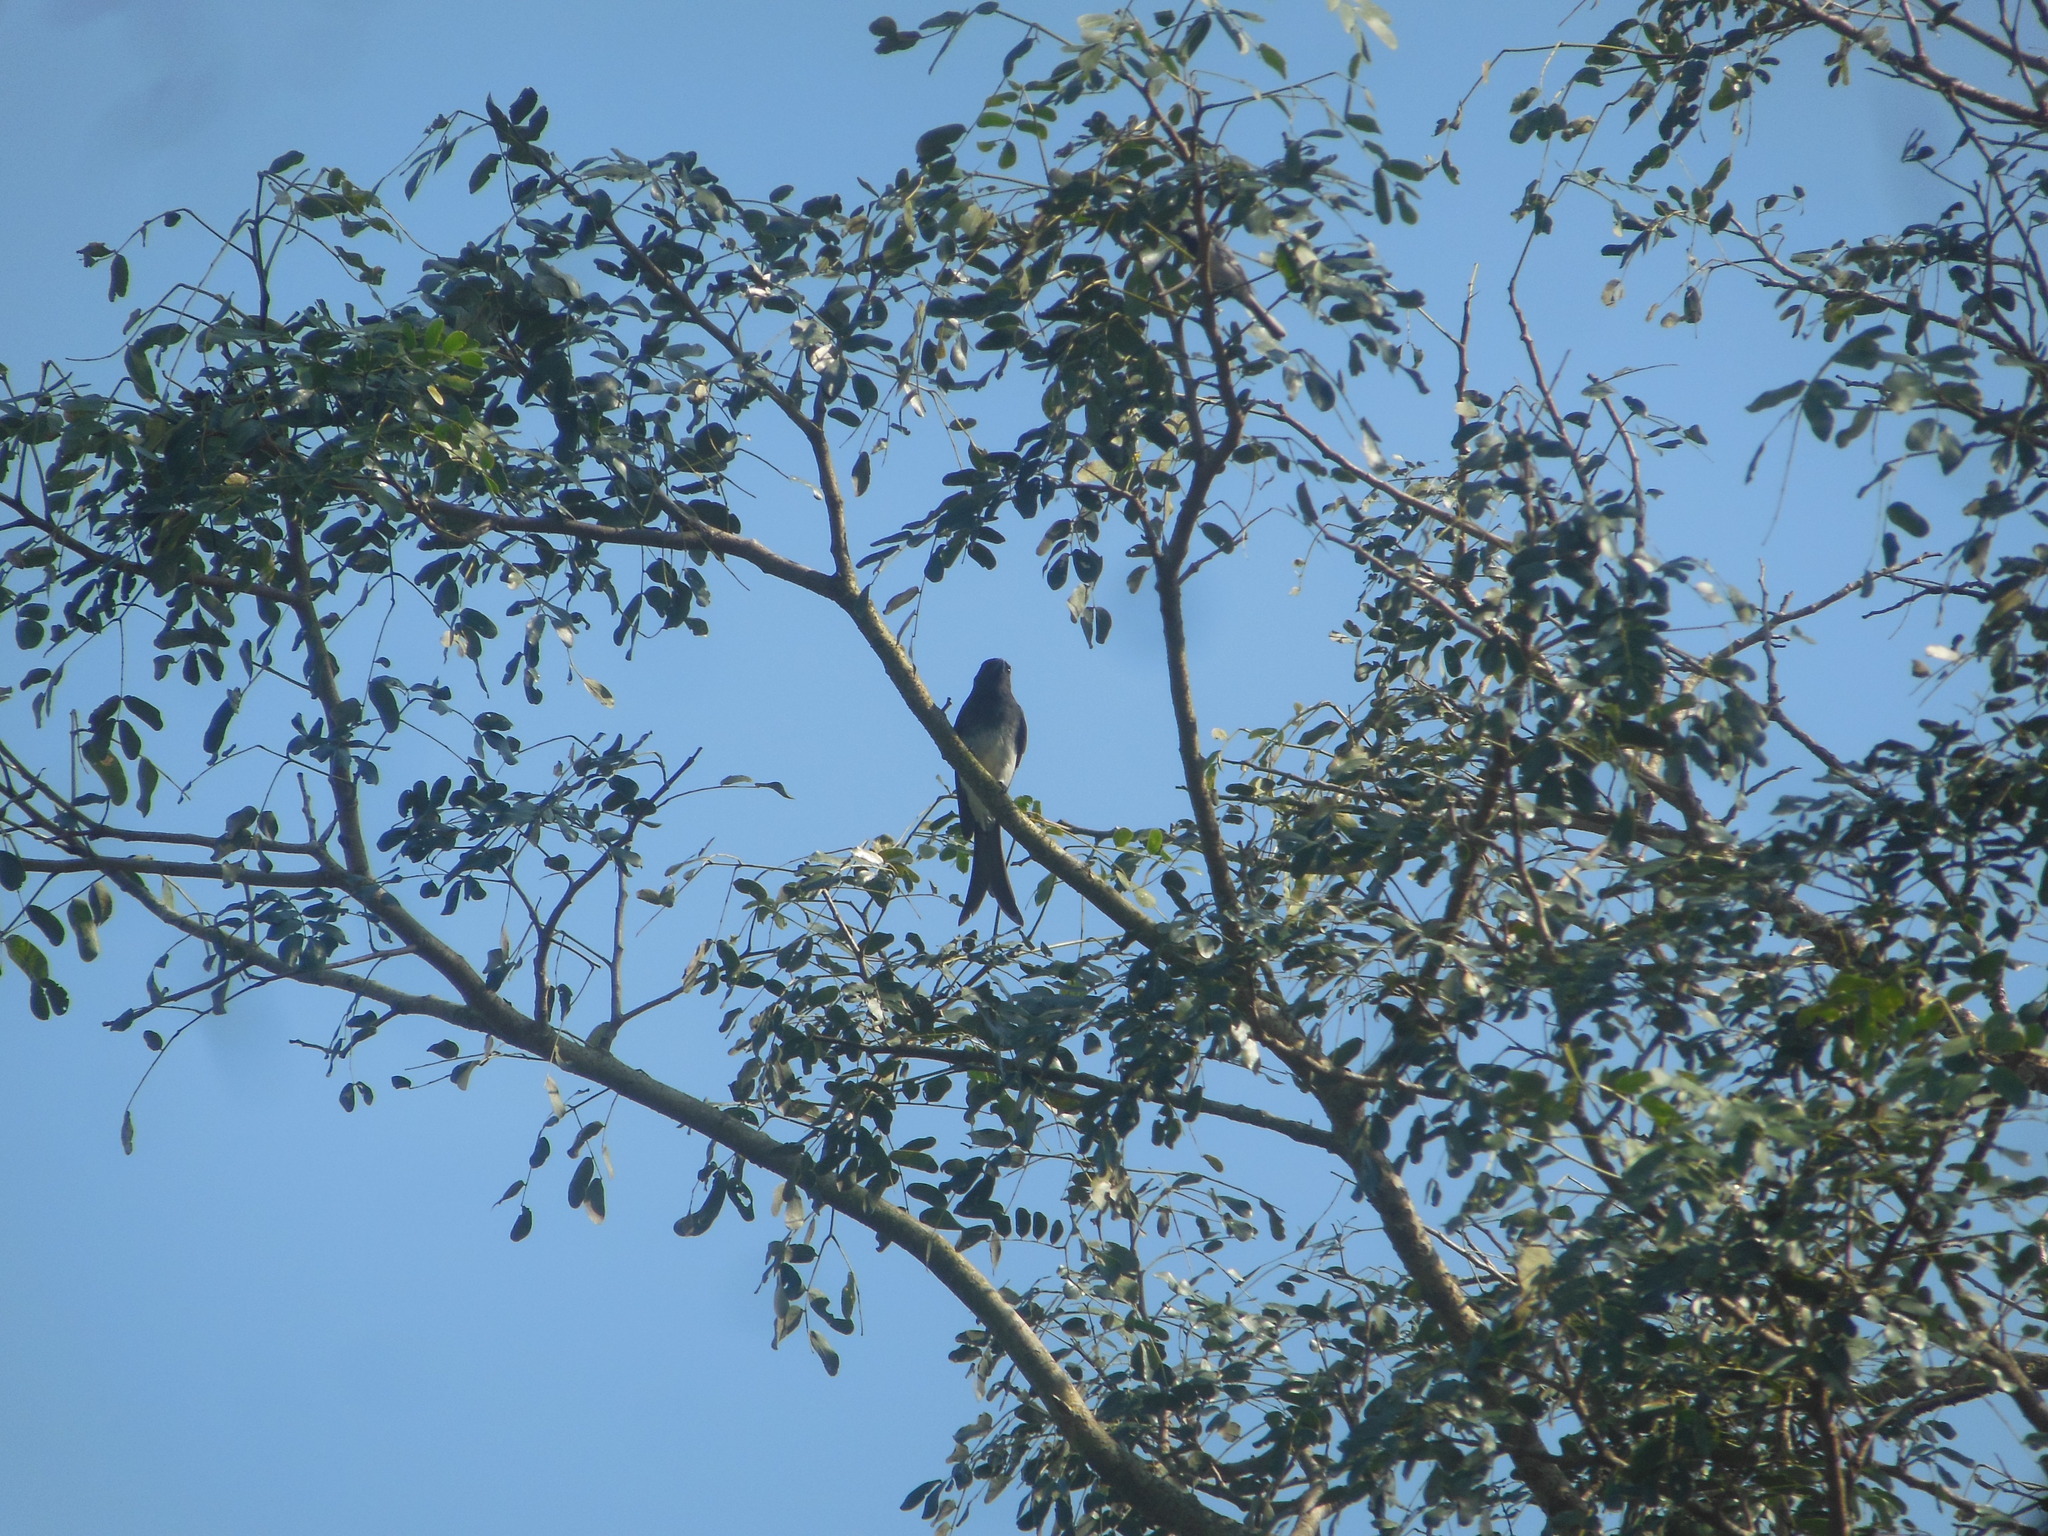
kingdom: Animalia
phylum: Chordata
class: Aves
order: Passeriformes
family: Dicruridae
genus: Dicrurus
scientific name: Dicrurus caerulescens
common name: White-bellied drongo
